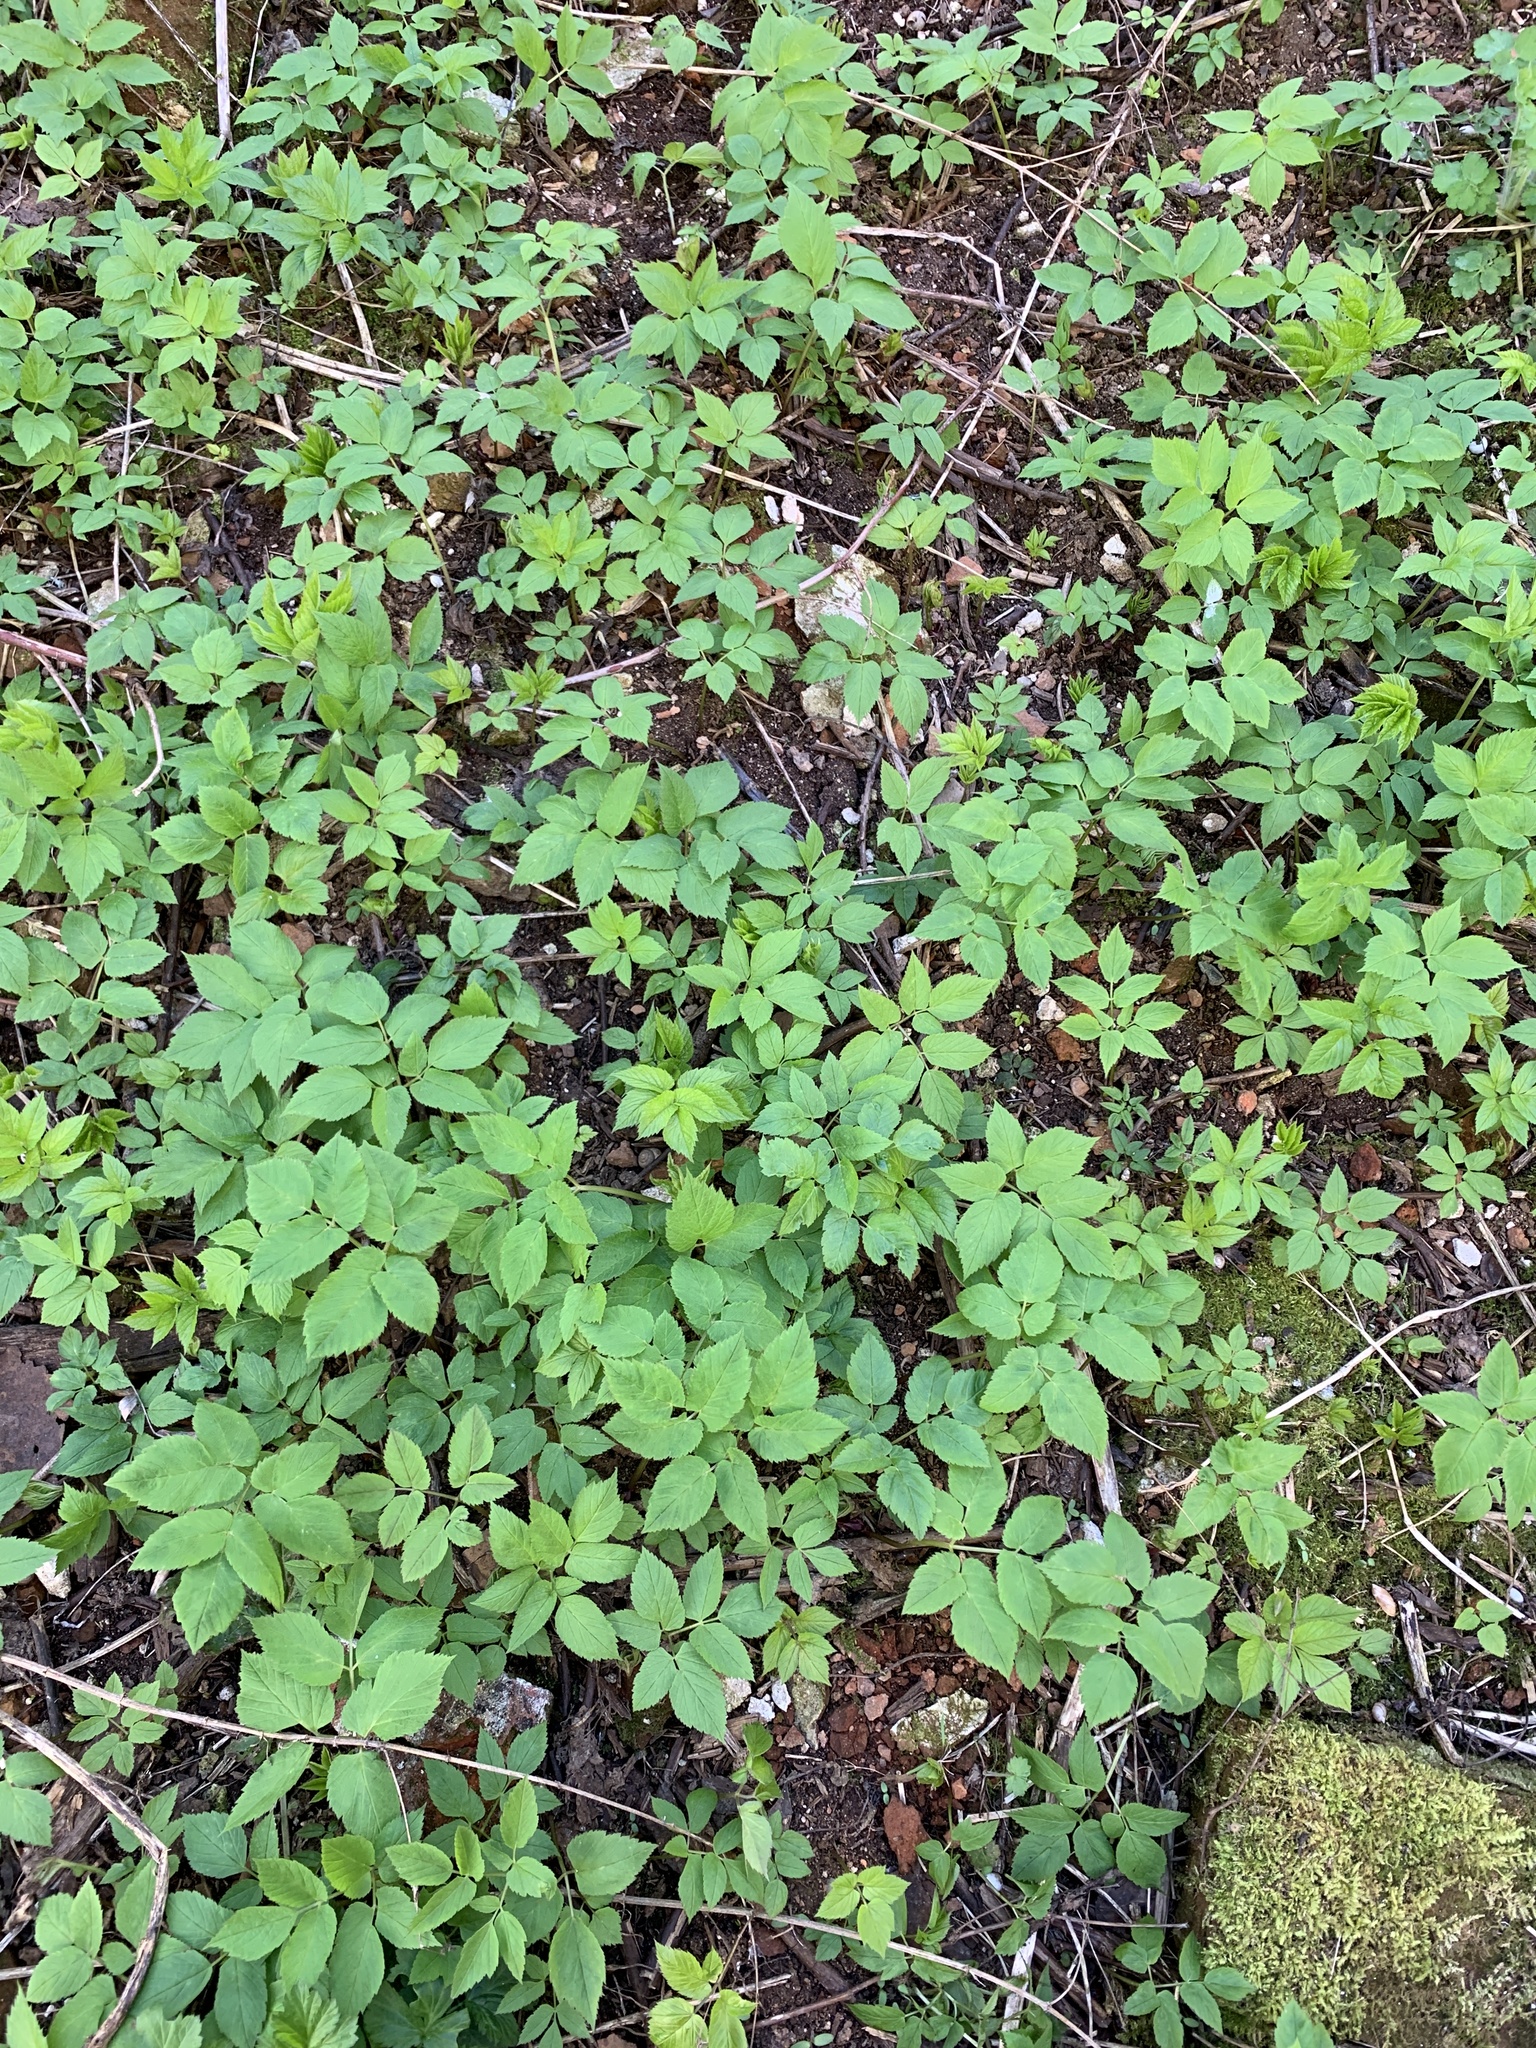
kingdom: Plantae
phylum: Tracheophyta
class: Magnoliopsida
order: Apiales
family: Apiaceae
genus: Aegopodium
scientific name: Aegopodium podagraria
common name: Ground-elder
